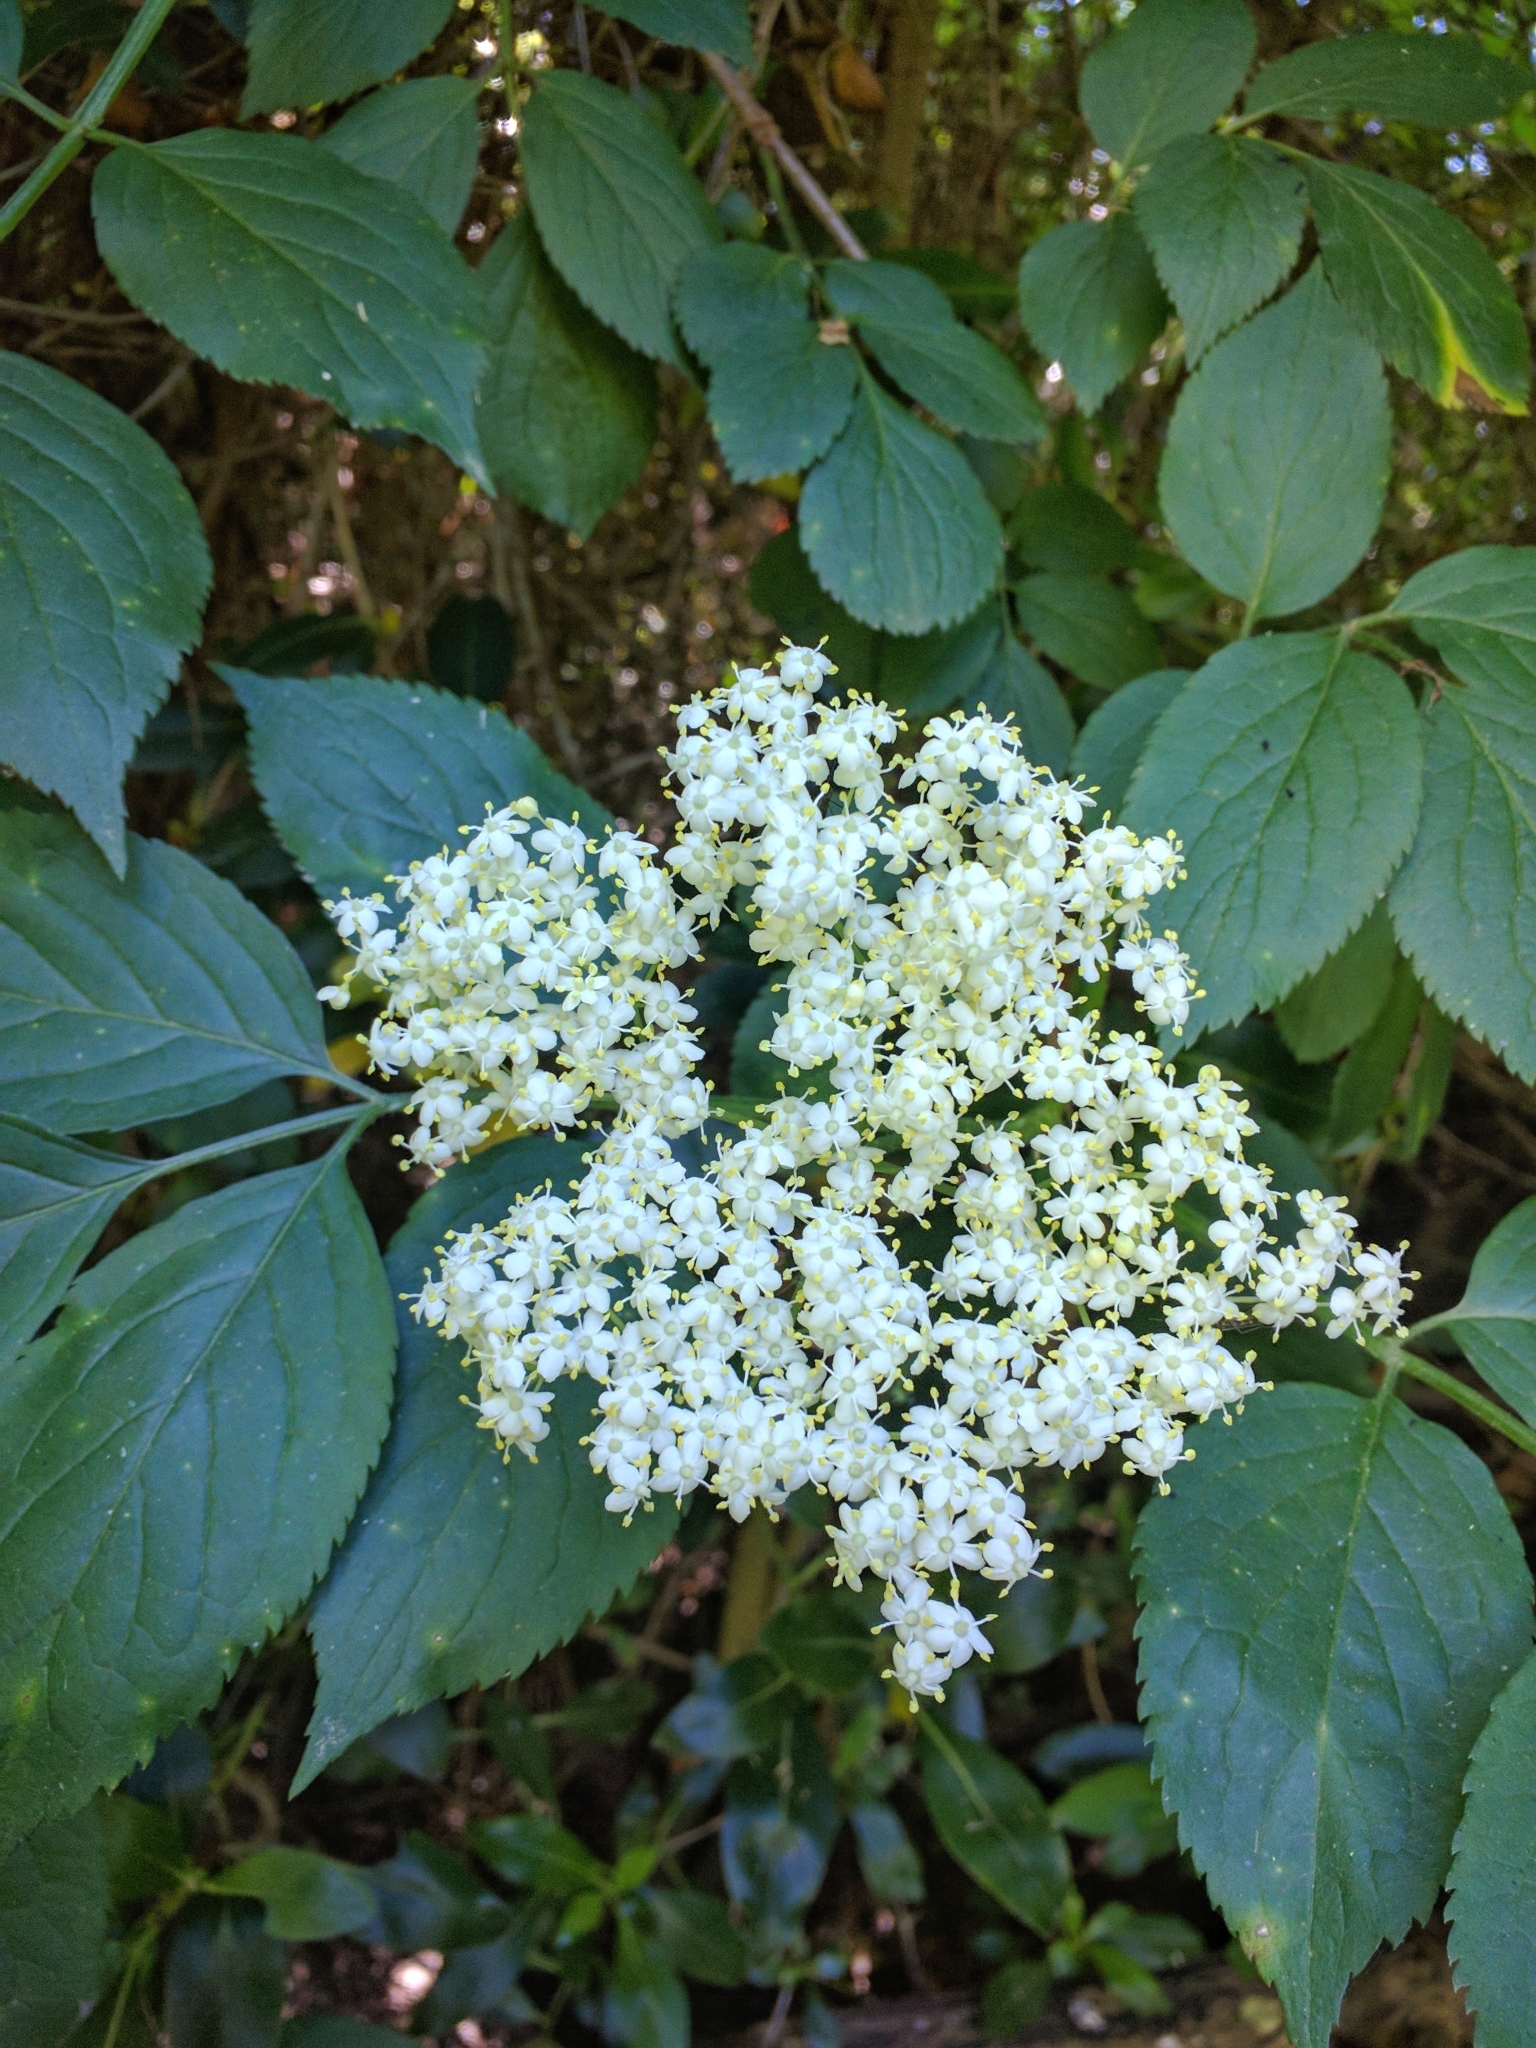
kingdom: Plantae
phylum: Tracheophyta
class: Magnoliopsida
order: Dipsacales
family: Viburnaceae
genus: Sambucus
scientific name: Sambucus nigra
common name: Elder
